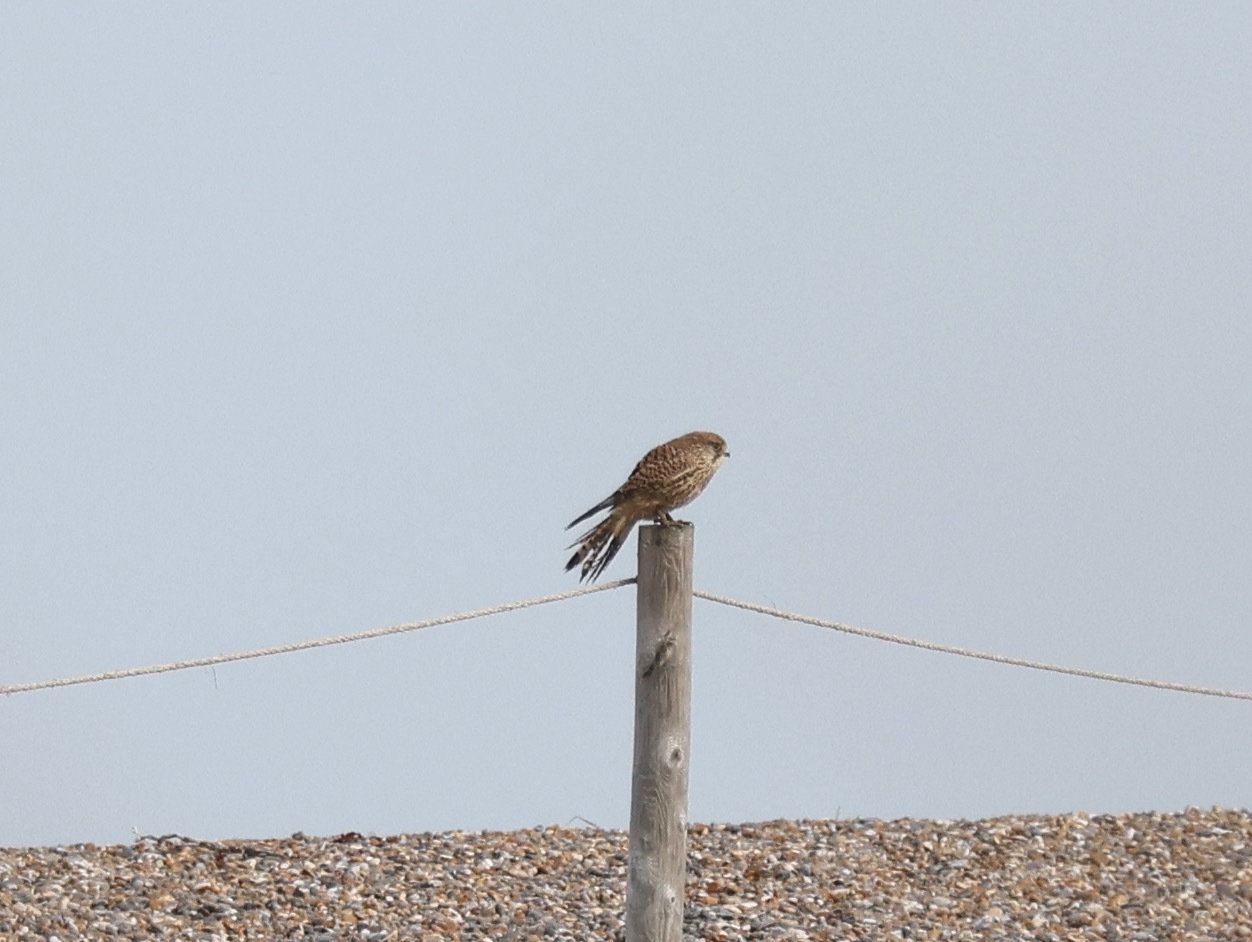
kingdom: Animalia
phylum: Chordata
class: Aves
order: Falconiformes
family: Falconidae
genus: Falco
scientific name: Falco tinnunculus
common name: Common kestrel
